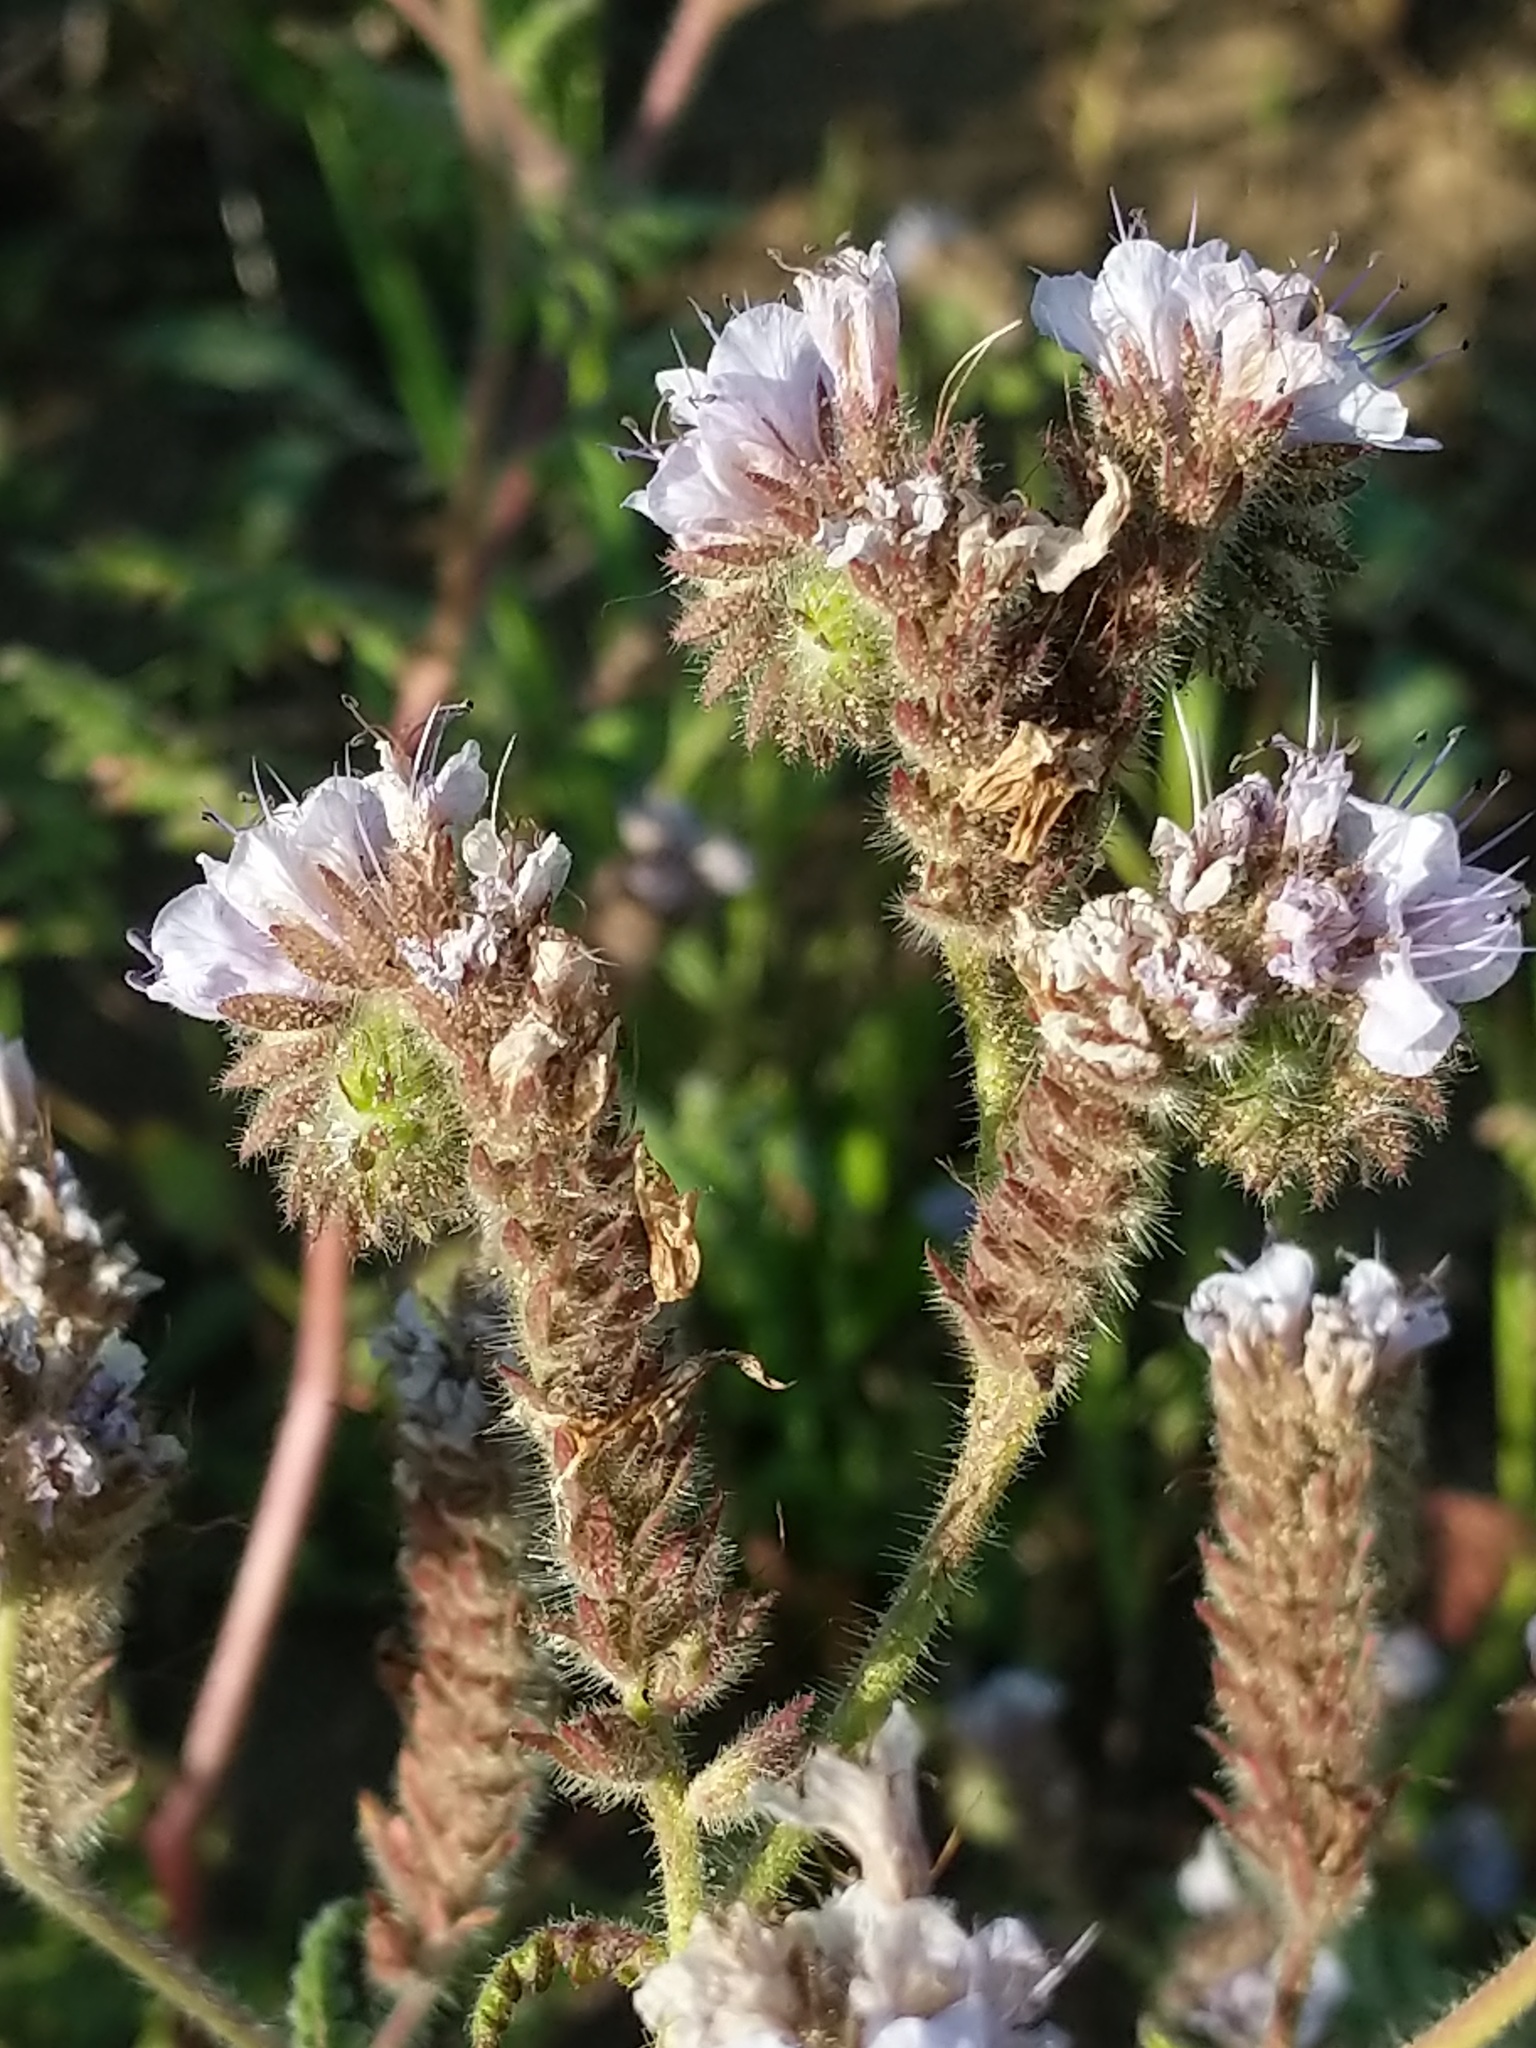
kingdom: Plantae
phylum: Tracheophyta
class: Magnoliopsida
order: Boraginales
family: Hydrophyllaceae
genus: Phacelia
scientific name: Phacelia distans
